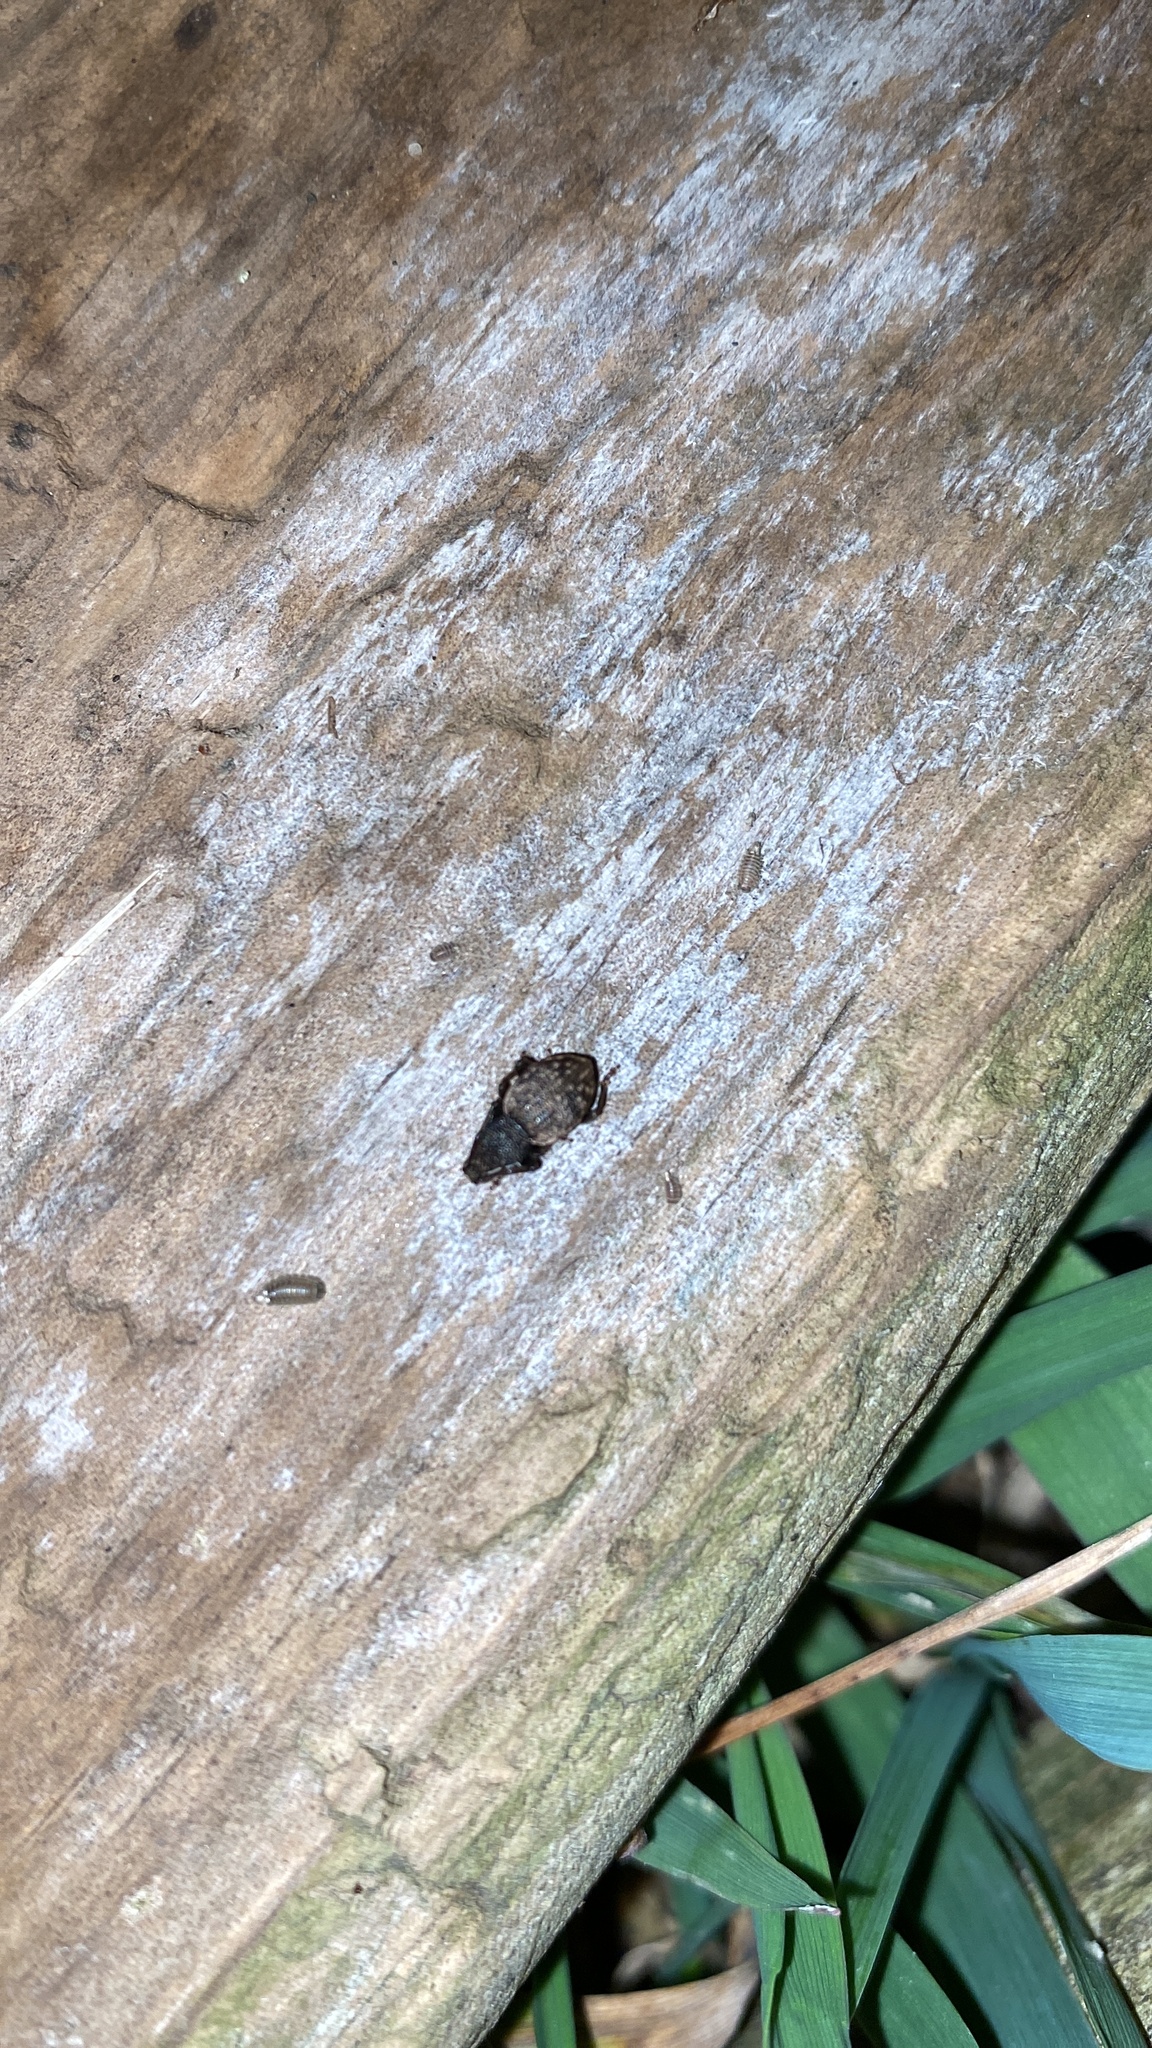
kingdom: Animalia
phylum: Arthropoda
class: Insecta
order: Coleoptera
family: Curculionidae
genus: Otiorhynchus
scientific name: Otiorhynchus raucus
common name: Weevil
